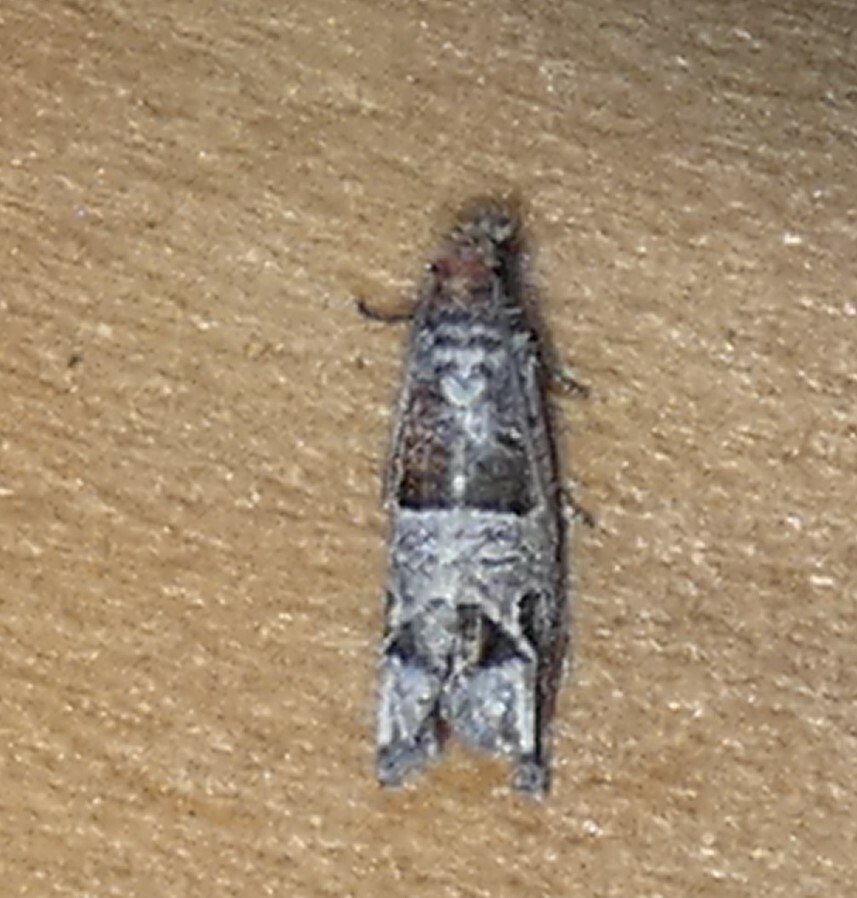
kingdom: Animalia
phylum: Arthropoda
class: Insecta
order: Lepidoptera
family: Tortricidae
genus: Sonia
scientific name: Sonia constrictana
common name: Constricted sonia moth
